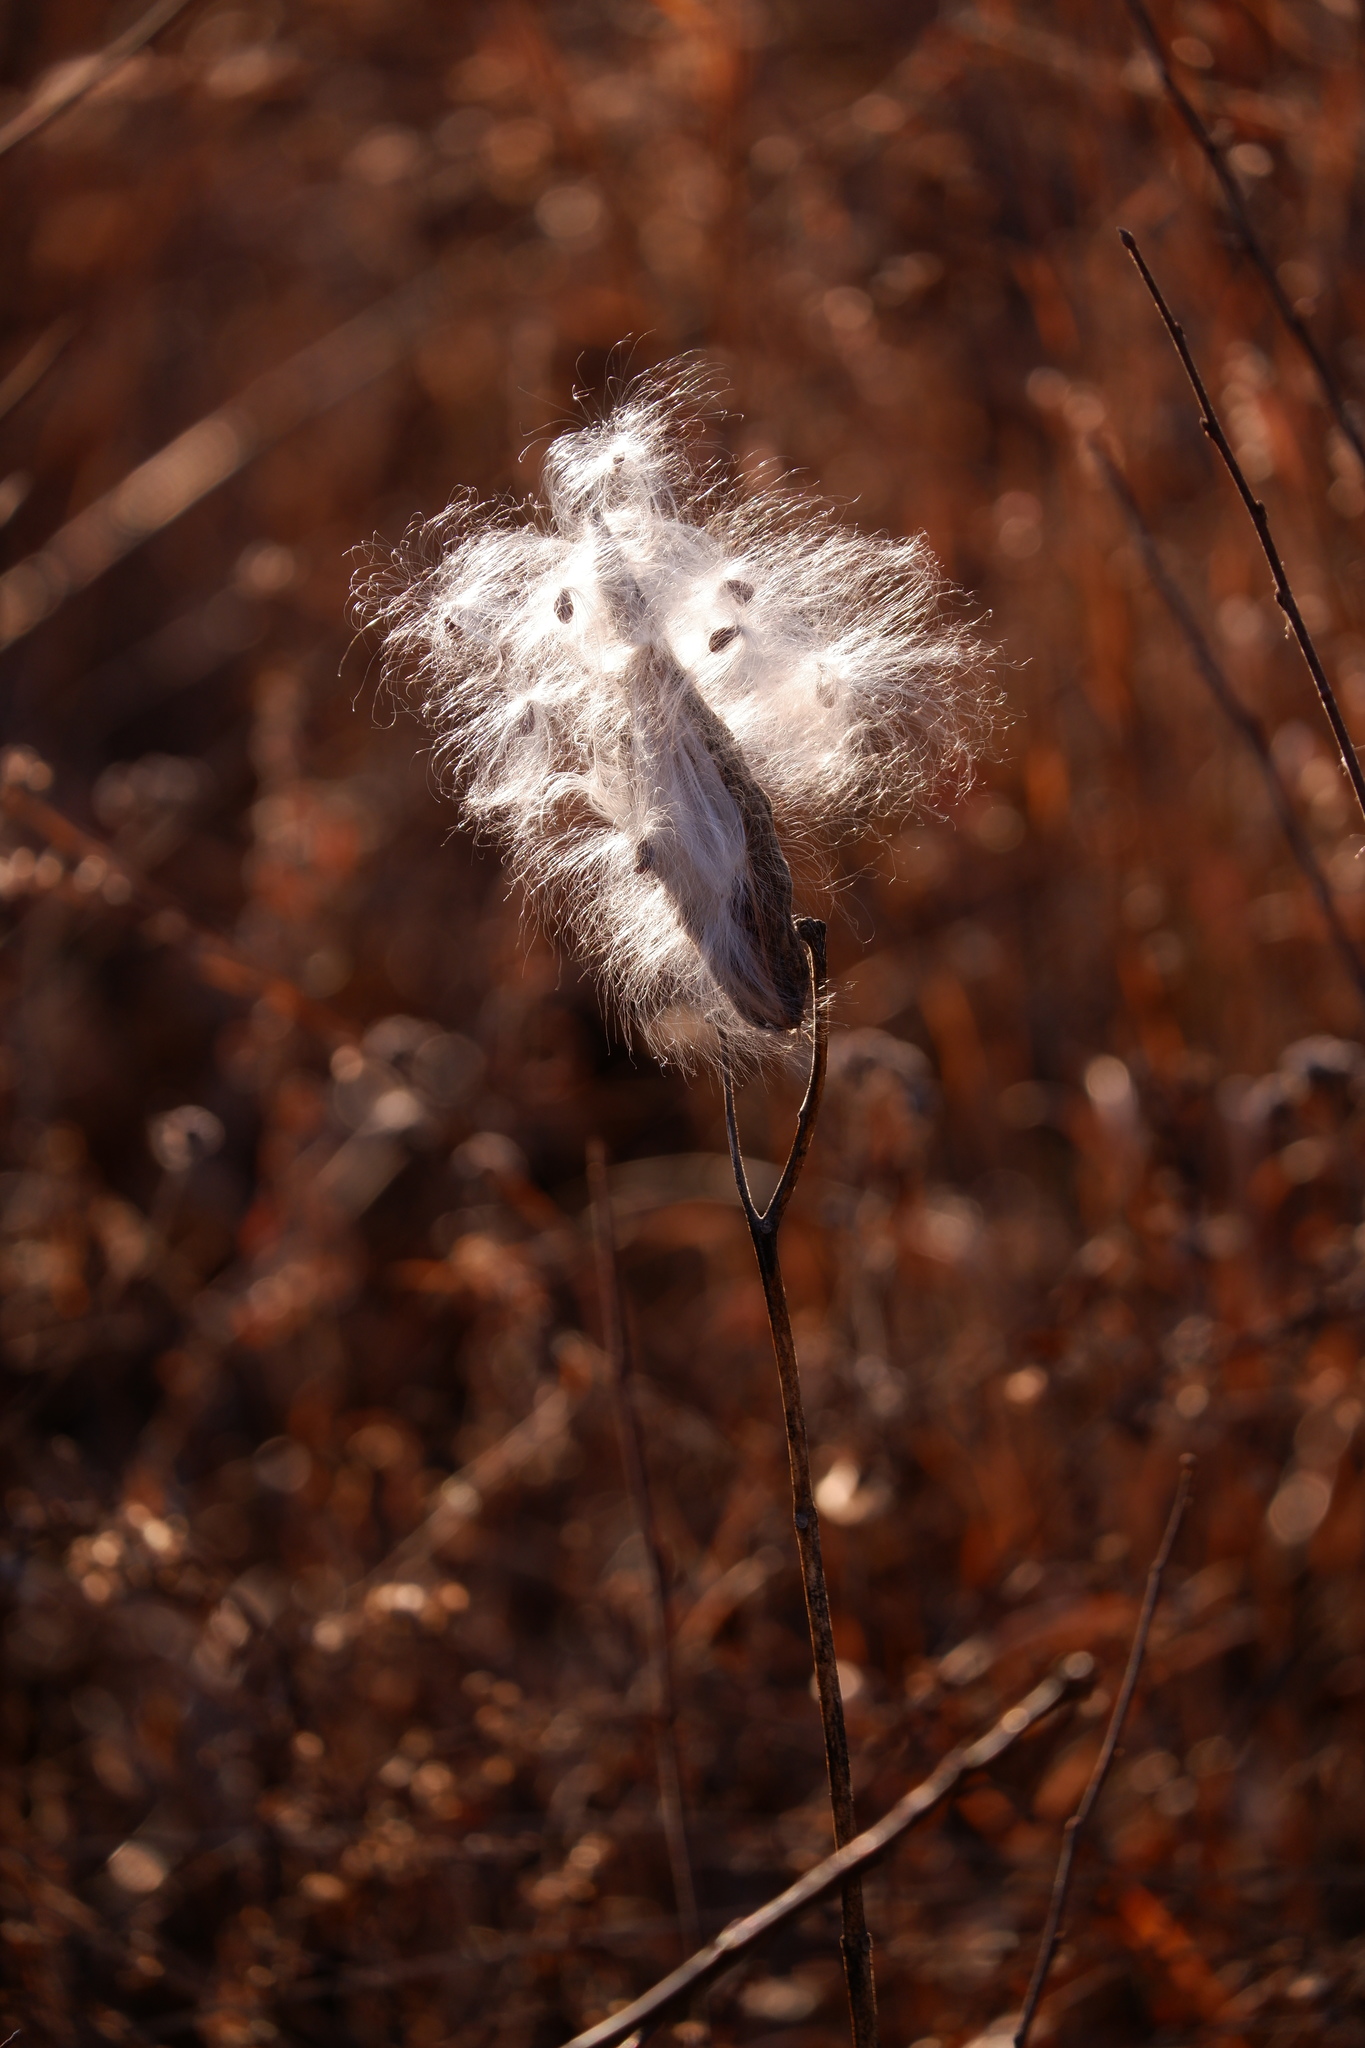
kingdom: Plantae
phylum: Tracheophyta
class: Magnoliopsida
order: Gentianales
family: Apocynaceae
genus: Asclepias
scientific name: Asclepias syriaca
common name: Common milkweed
